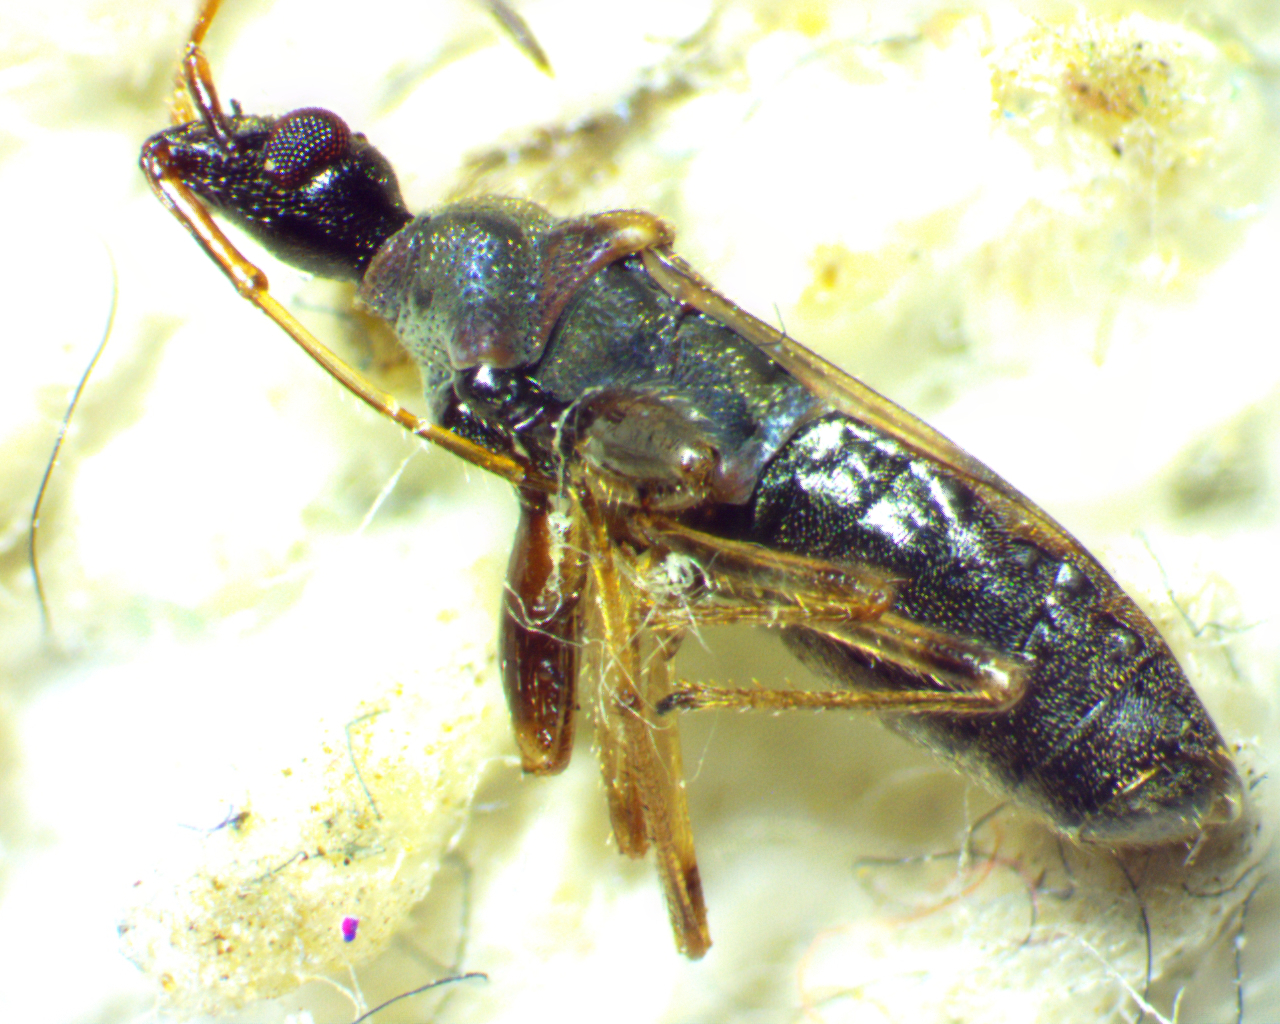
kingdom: Animalia
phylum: Arthropoda
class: Insecta
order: Hemiptera
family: Rhyparochromidae
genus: Heraeus
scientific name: Heraeus plebejus
